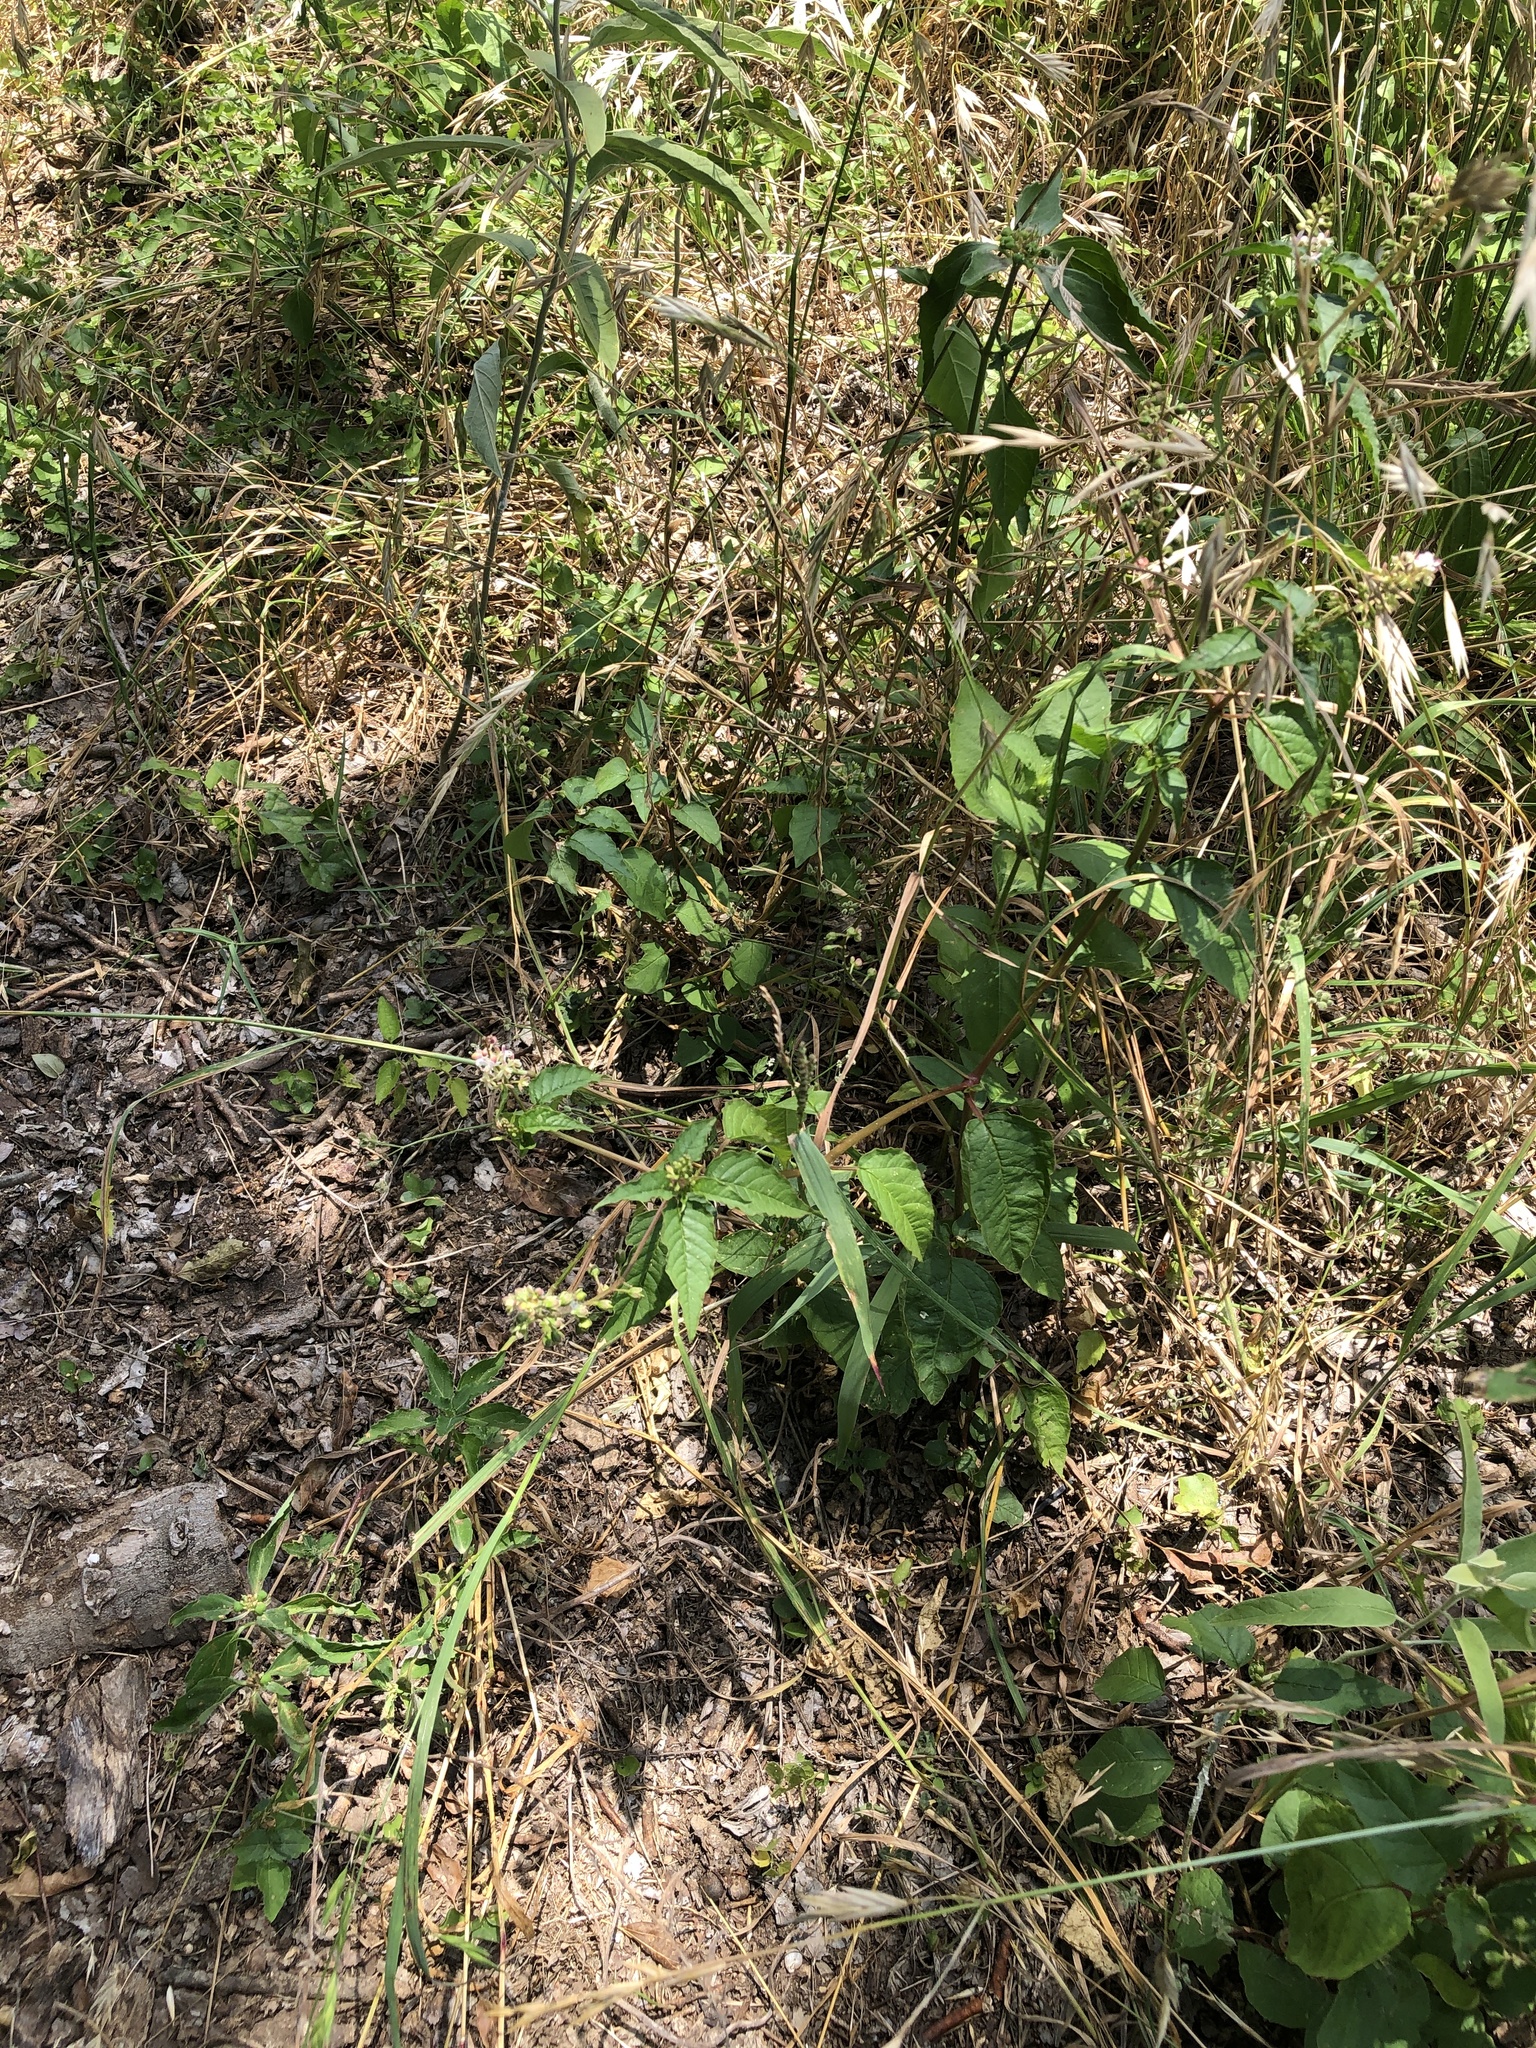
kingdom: Plantae
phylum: Tracheophyta
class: Magnoliopsida
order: Caryophyllales
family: Phytolaccaceae
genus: Rivina
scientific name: Rivina humilis
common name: Rougeplant
